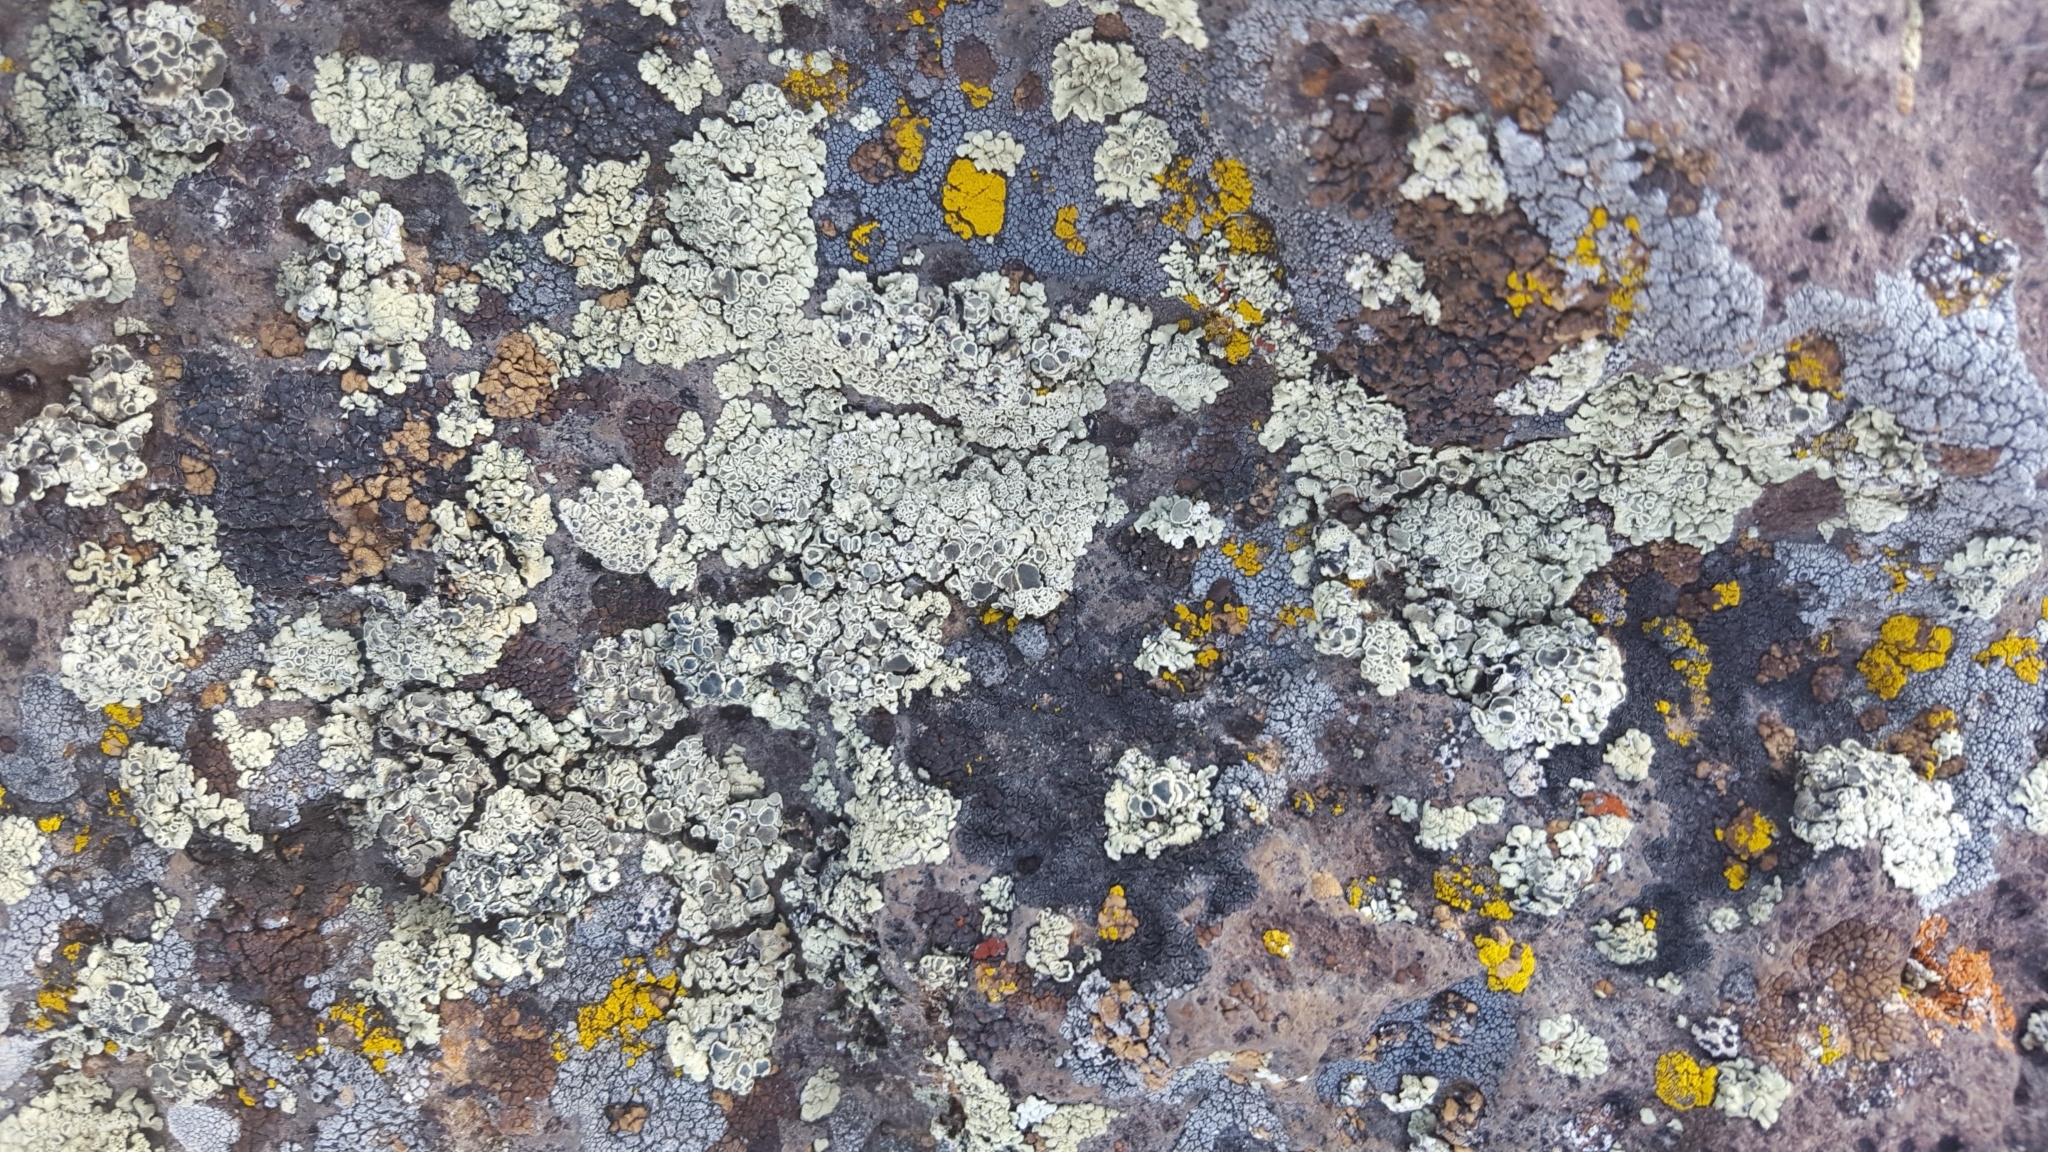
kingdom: Fungi
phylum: Ascomycota
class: Lecanoromycetes
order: Lecanorales
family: Lecanoraceae
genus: Rhizoplaca
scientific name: Rhizoplaca melanophthalma
